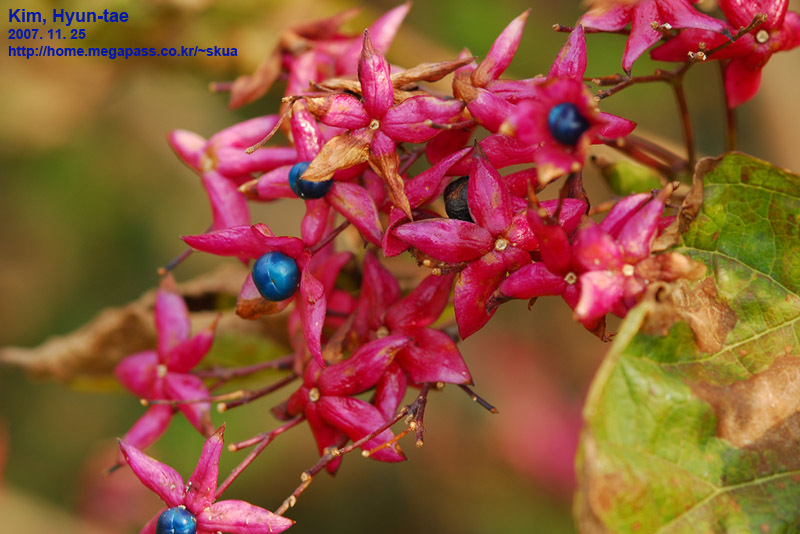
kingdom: Plantae
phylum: Tracheophyta
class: Magnoliopsida
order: Lamiales
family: Lamiaceae
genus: Clerodendrum
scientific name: Clerodendrum trichotomum
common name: Harlequin glorybower
